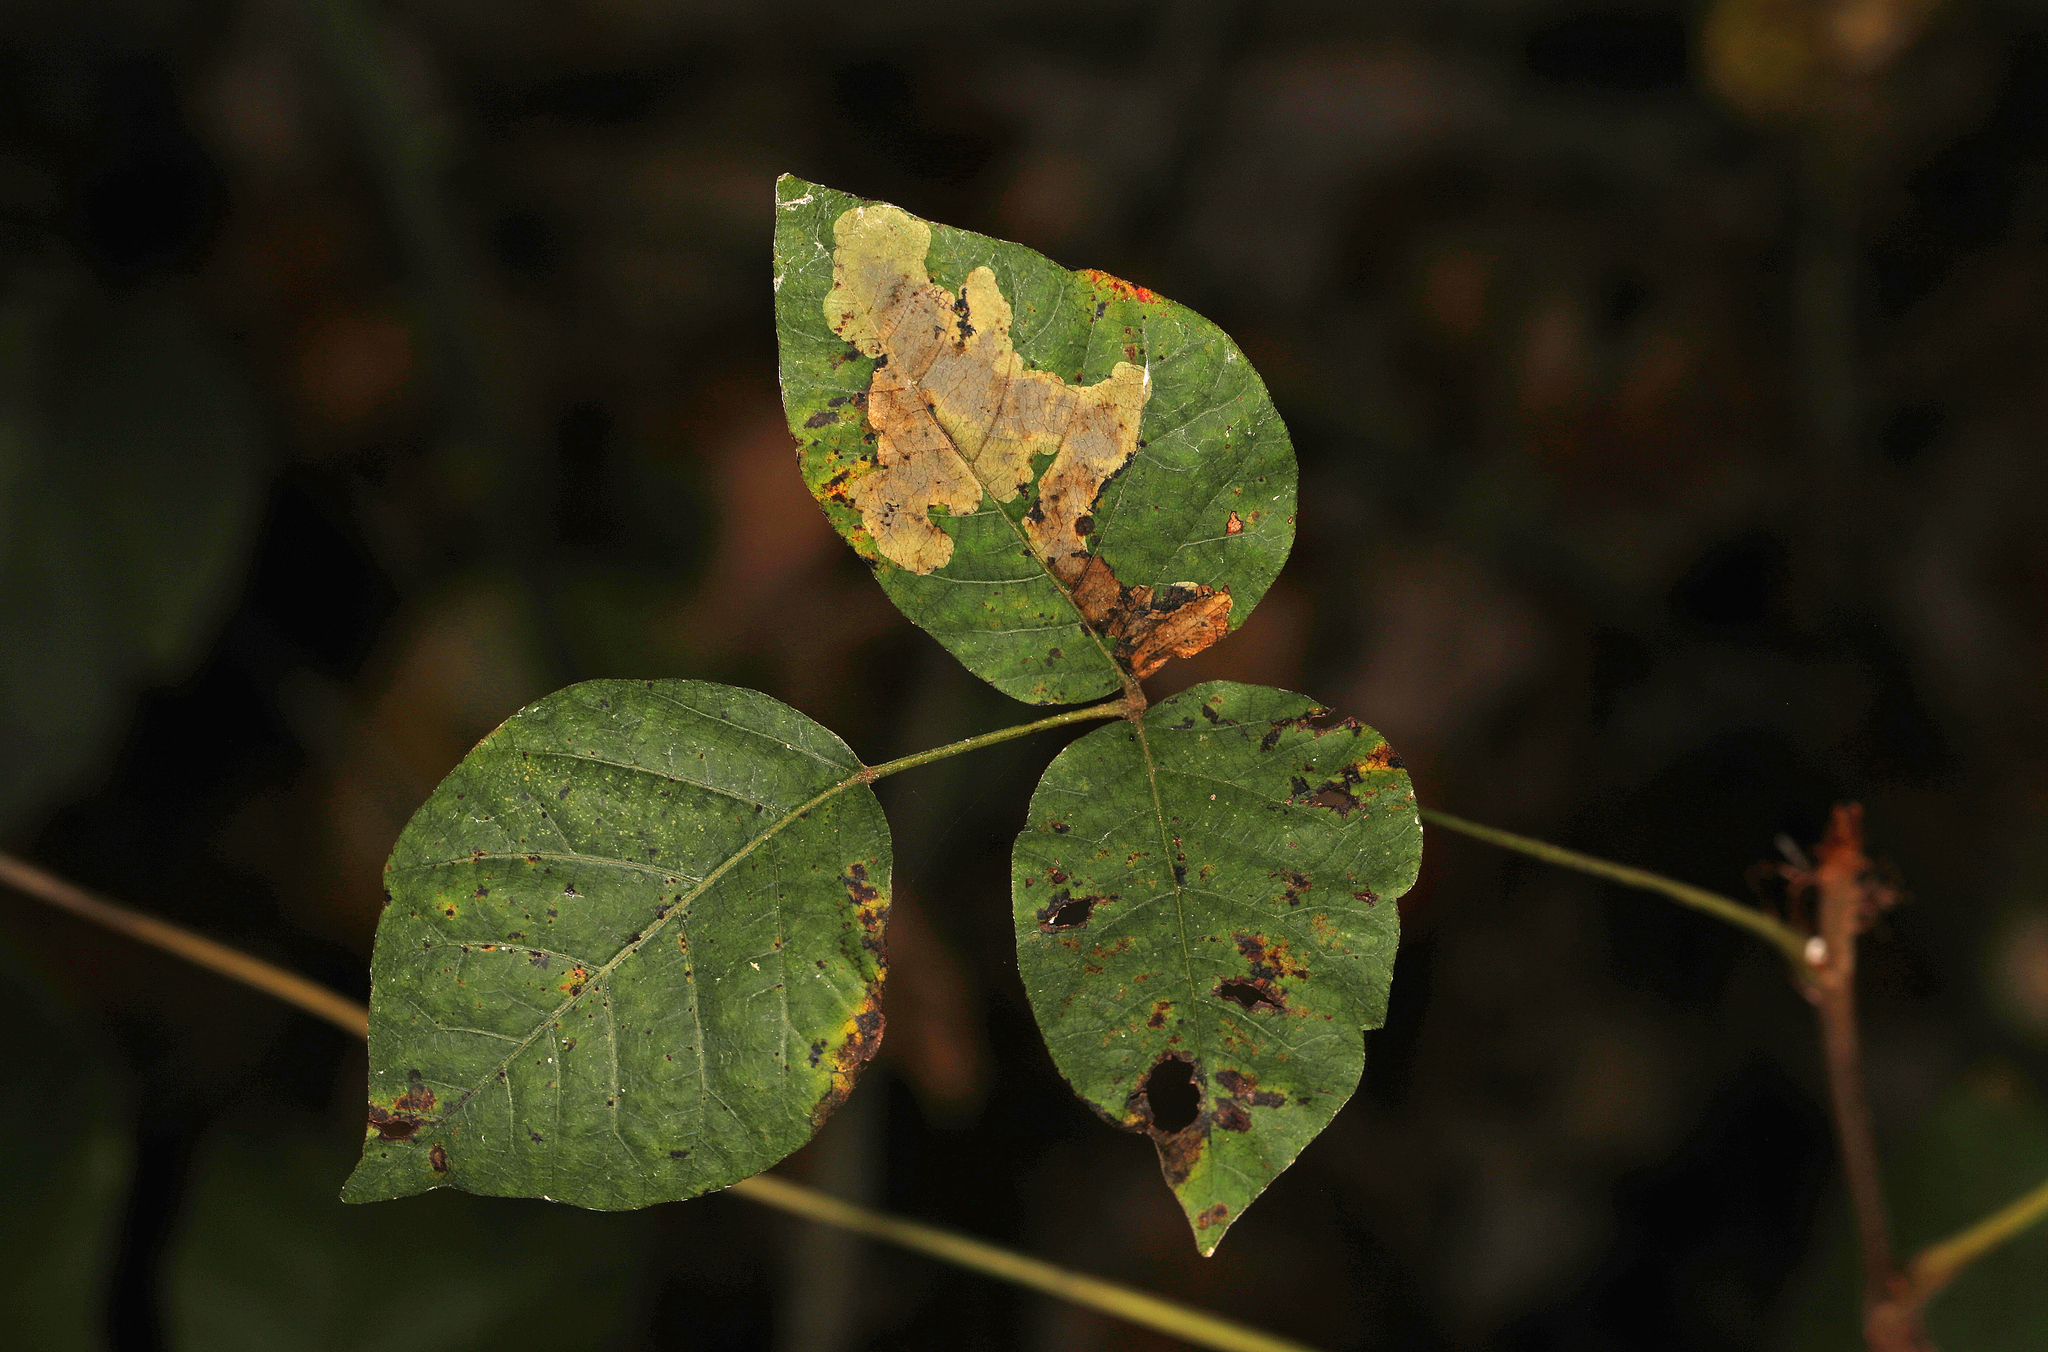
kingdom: Animalia
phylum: Arthropoda
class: Insecta
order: Lepidoptera
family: Gracillariidae
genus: Cameraria
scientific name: Cameraria guttifinitella
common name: Poison ivy leaf-miner moth
